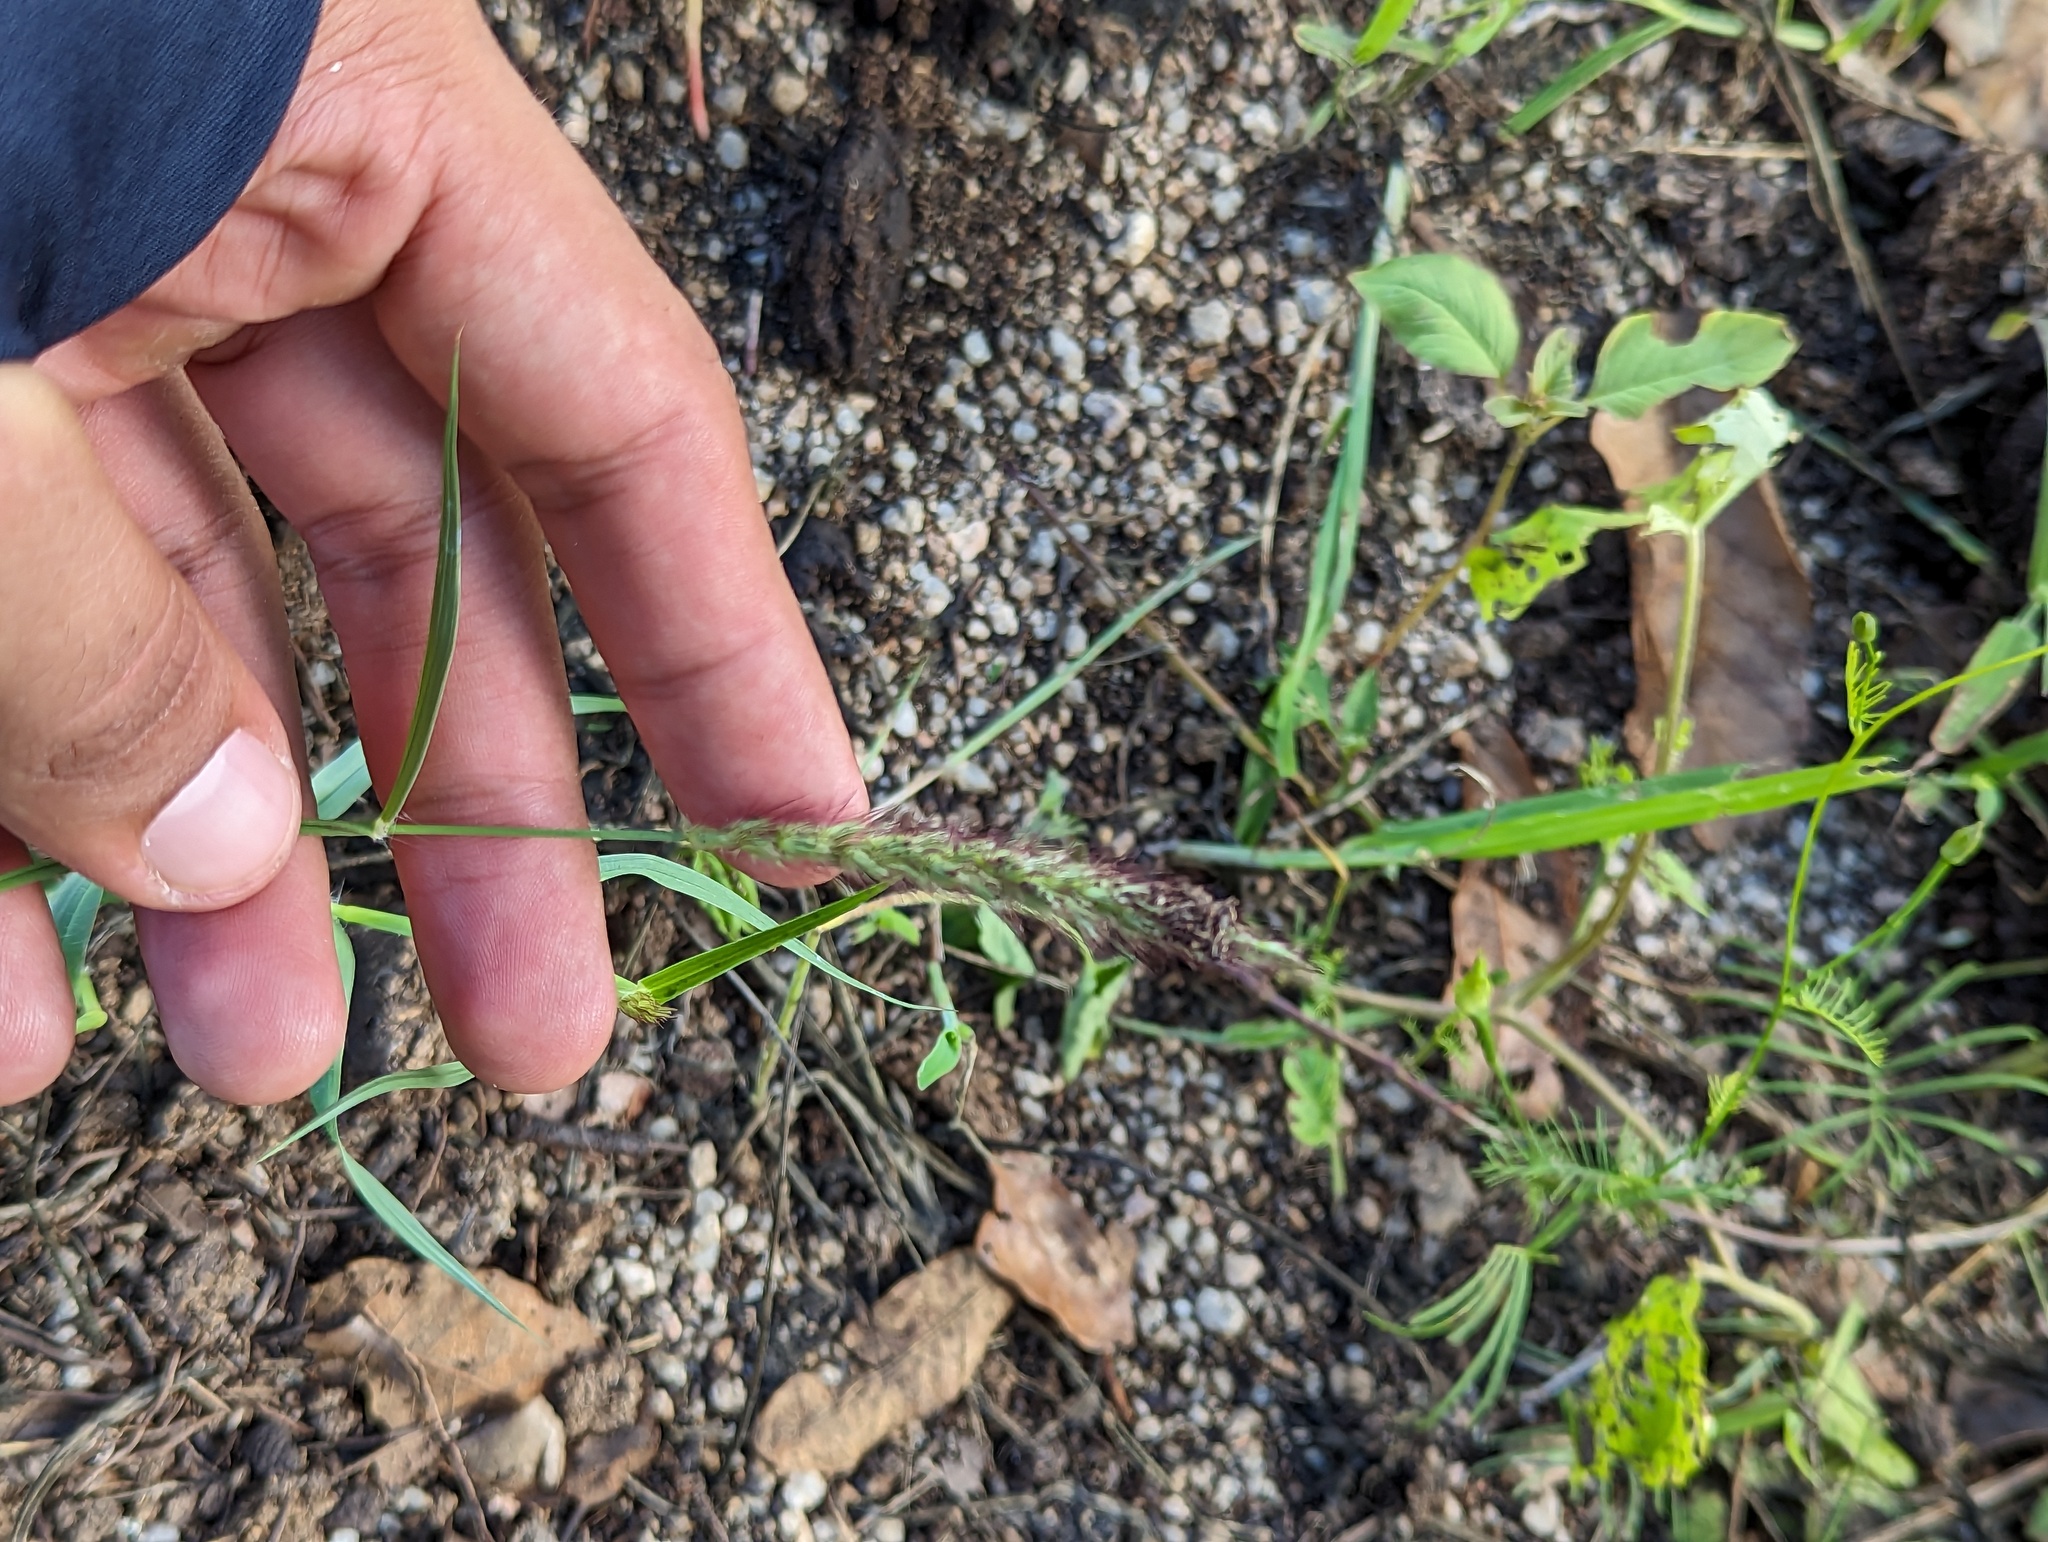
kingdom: Plantae
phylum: Tracheophyta
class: Liliopsida
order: Poales
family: Poaceae
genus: Cenchrus
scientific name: Cenchrus ciliaris
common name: Buffelgrass
